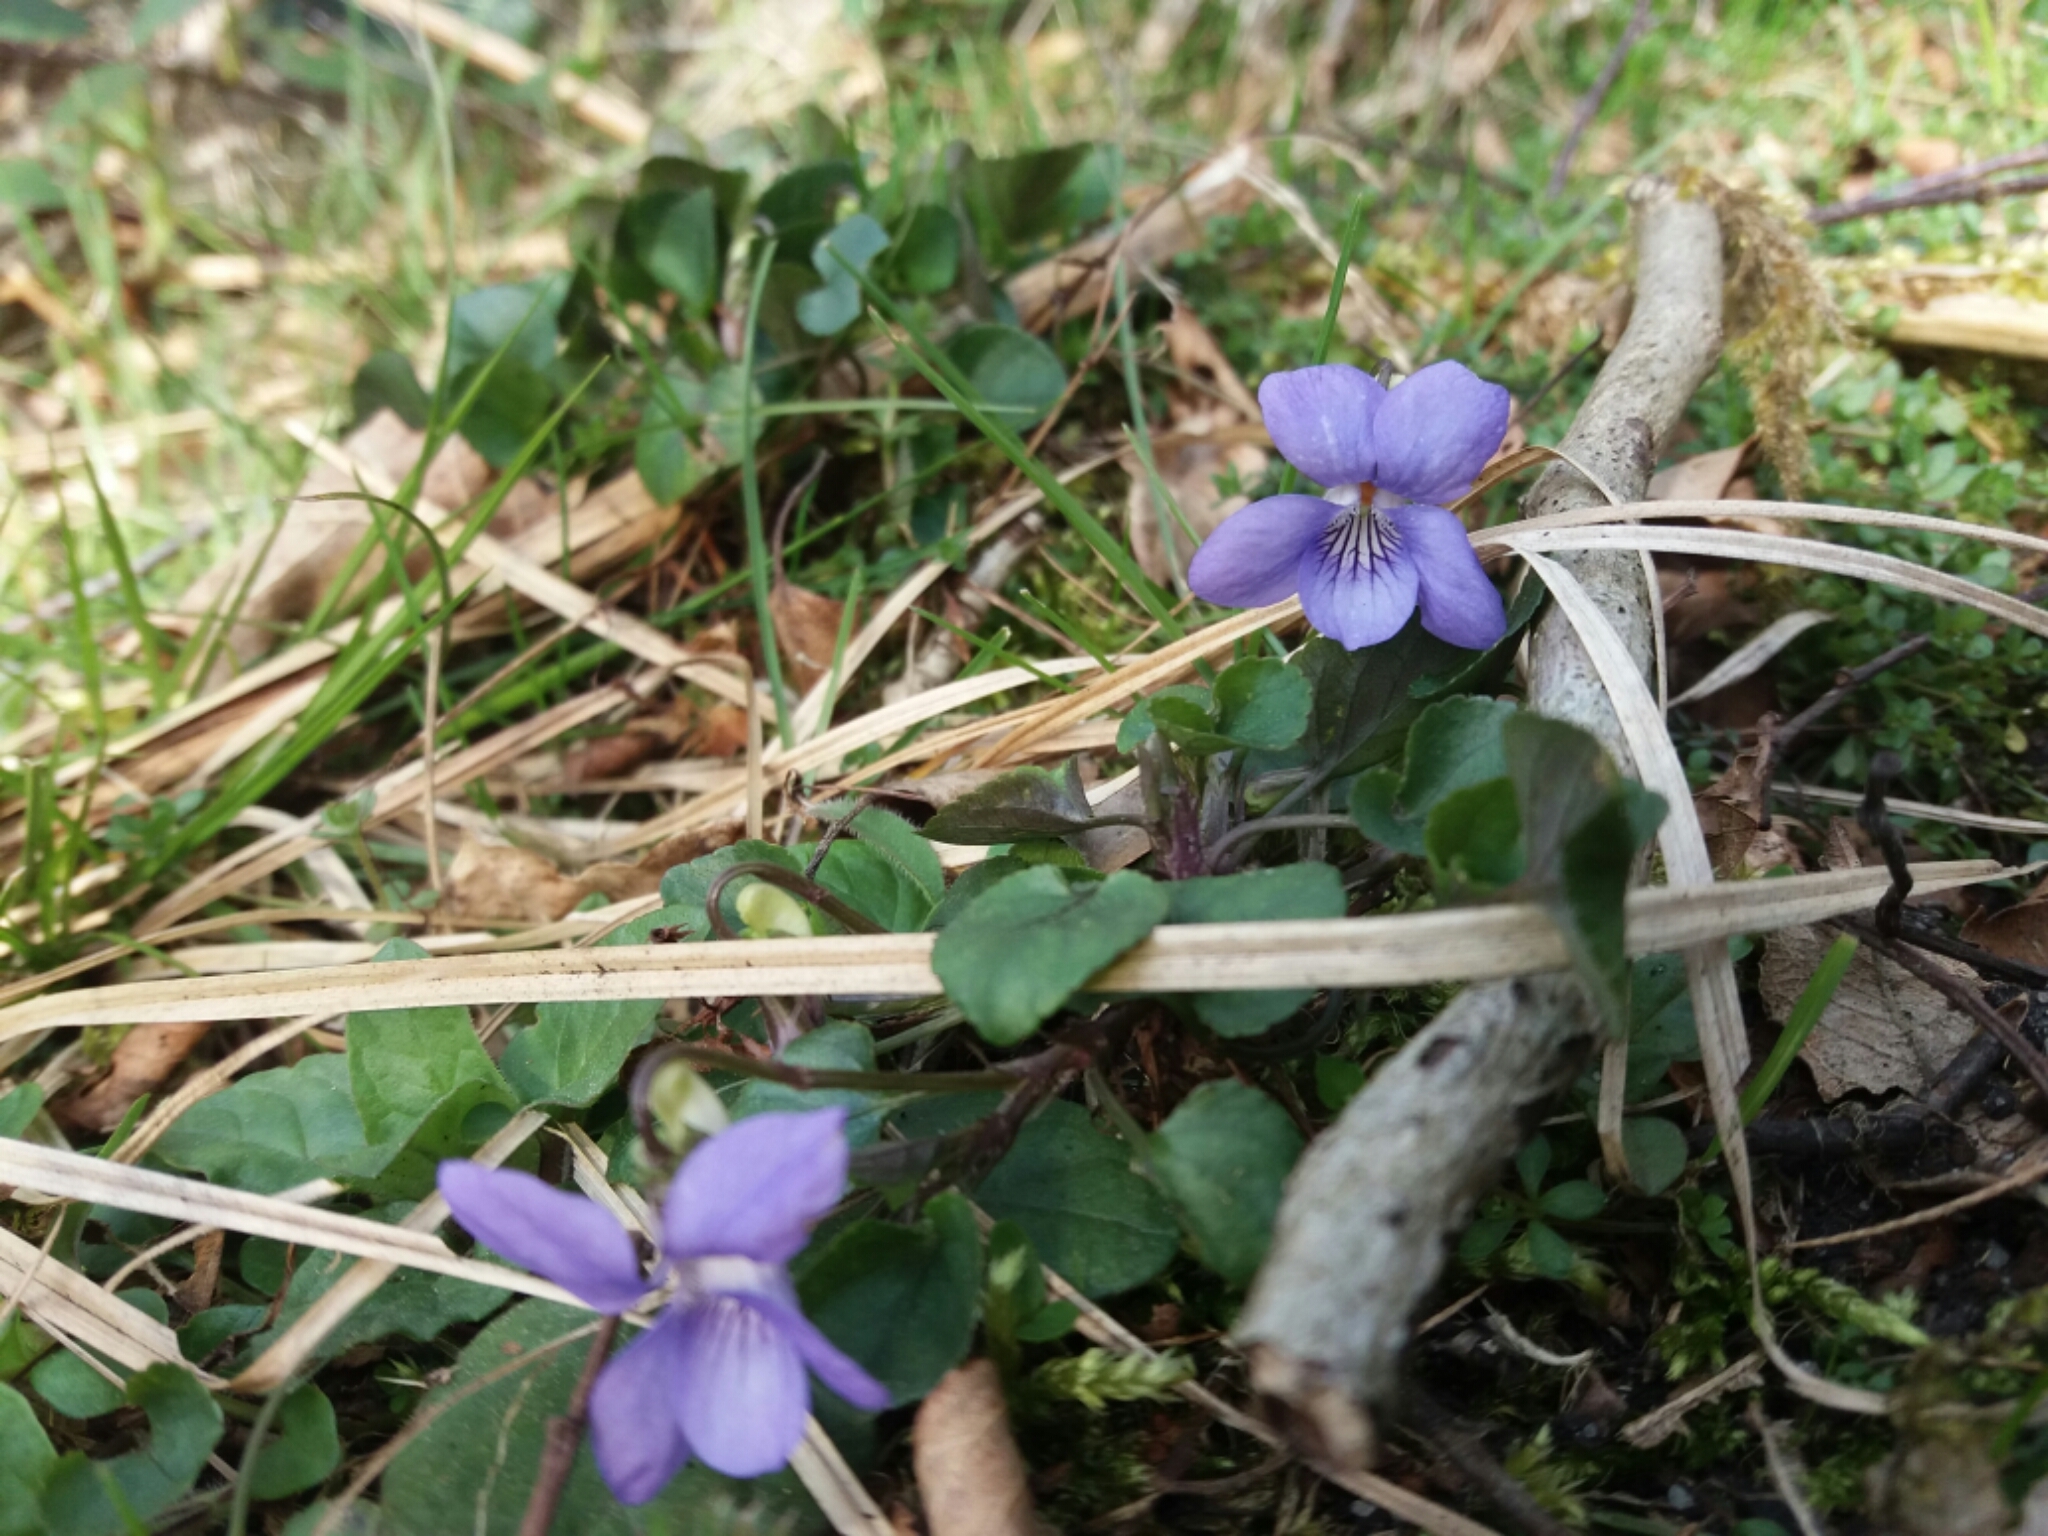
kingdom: Plantae
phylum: Tracheophyta
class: Magnoliopsida
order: Malpighiales
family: Violaceae
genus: Viola
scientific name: Viola reichenbachiana
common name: Early dog-violet
